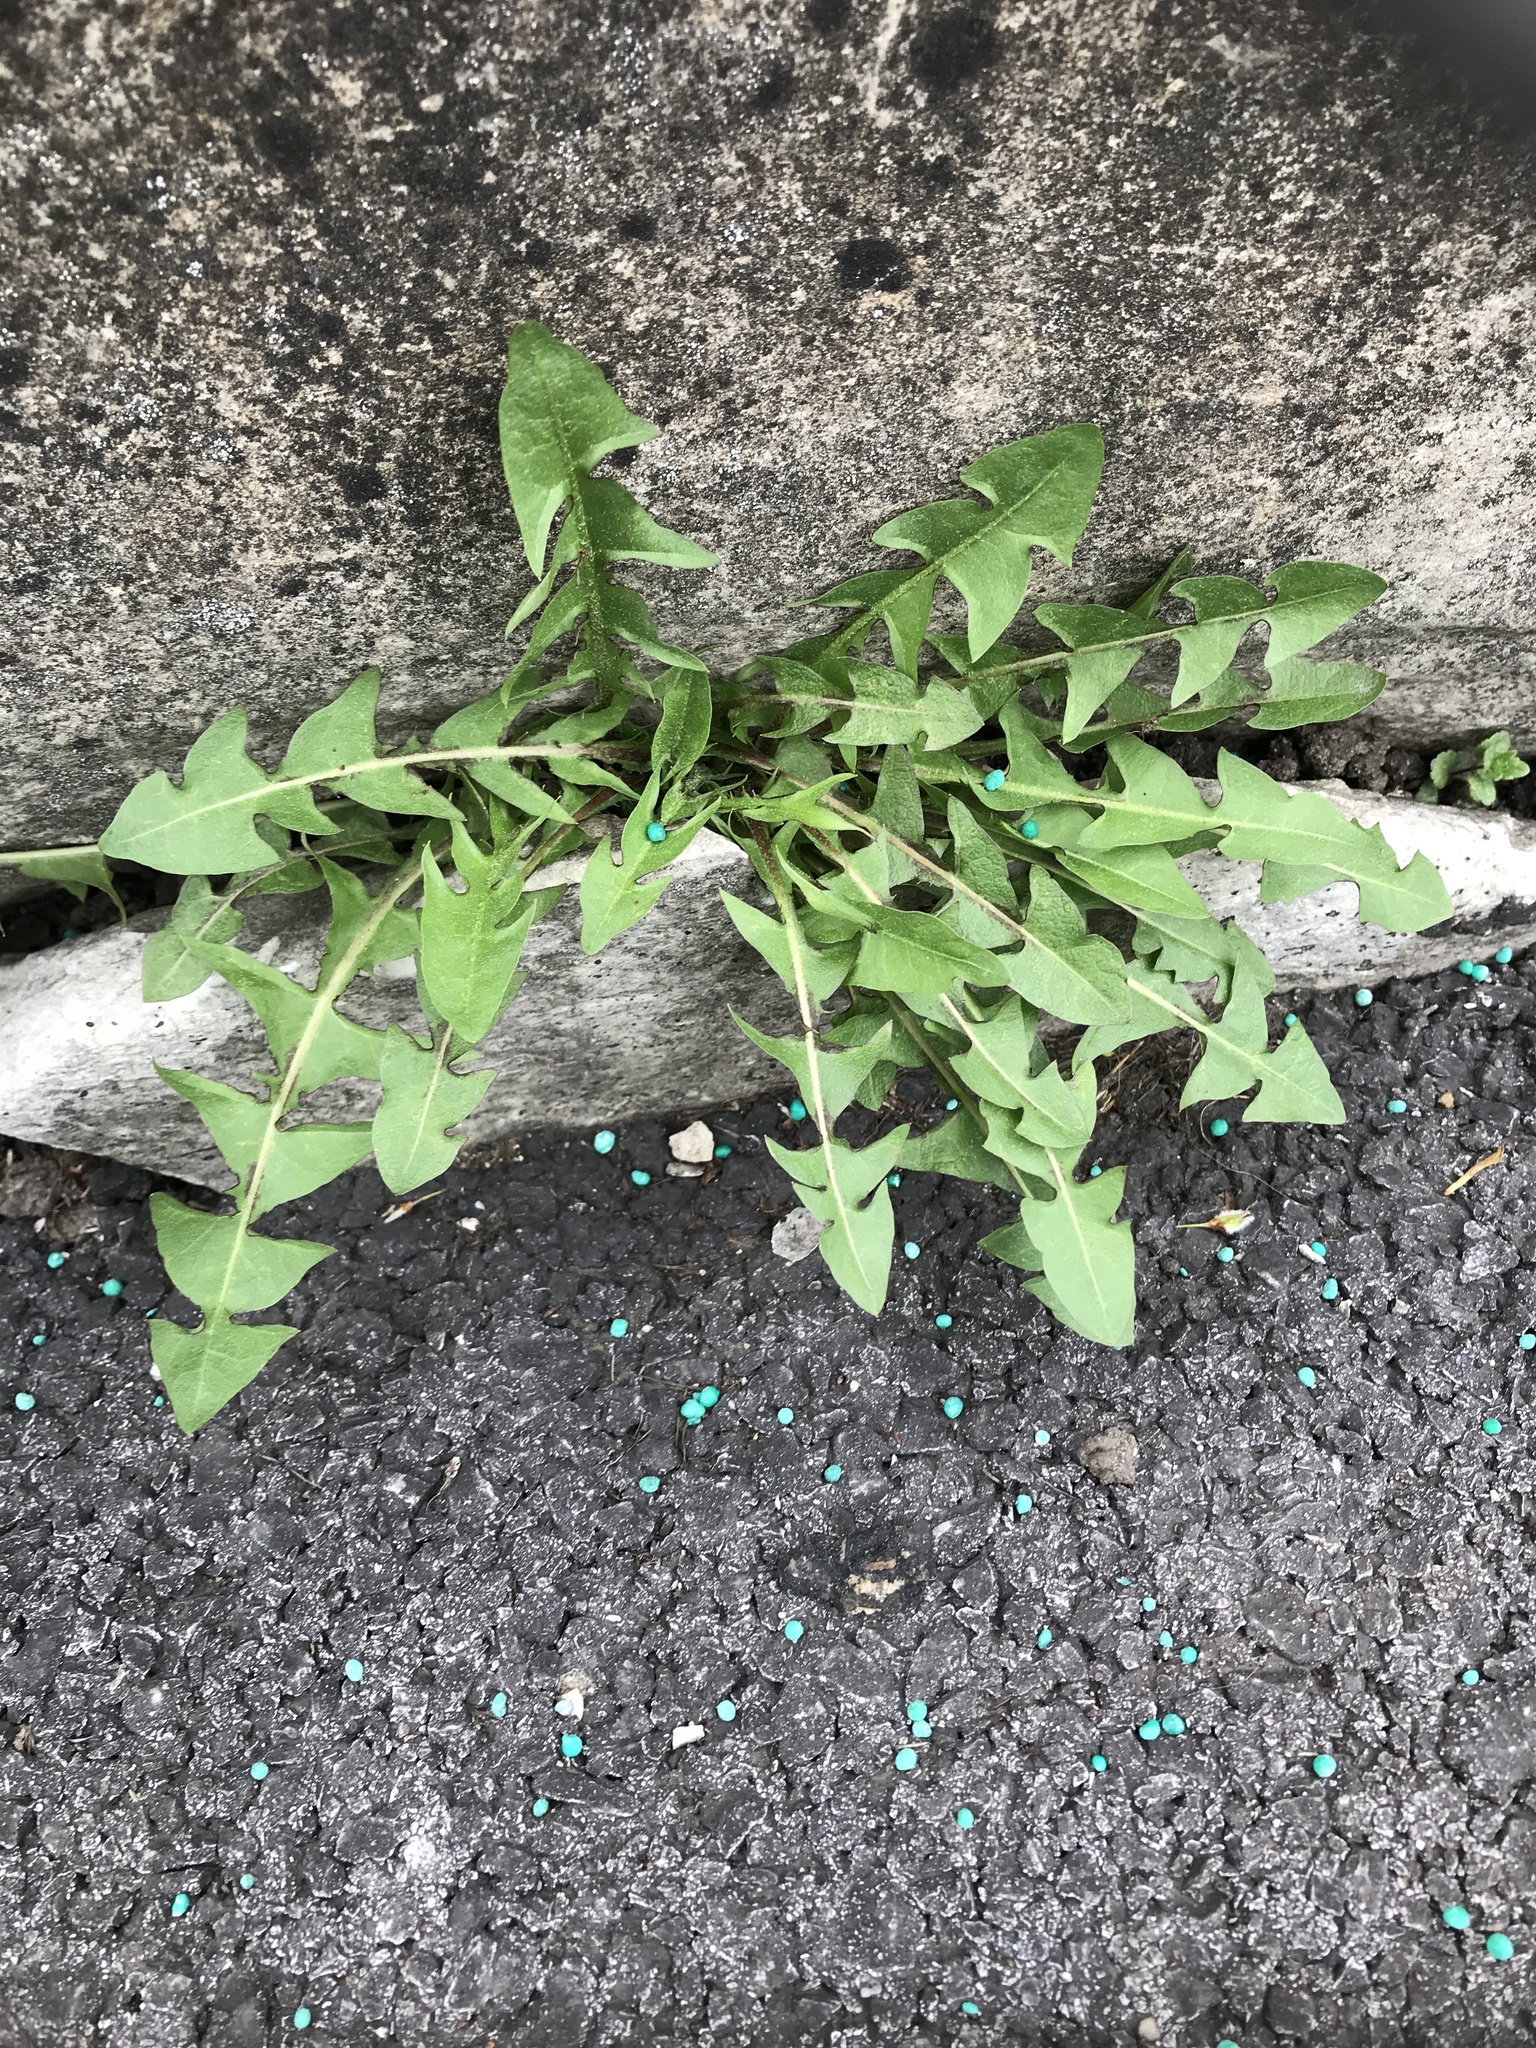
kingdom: Plantae
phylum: Tracheophyta
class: Magnoliopsida
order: Asterales
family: Asteraceae
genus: Taraxacum
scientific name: Taraxacum officinale
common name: Common dandelion
